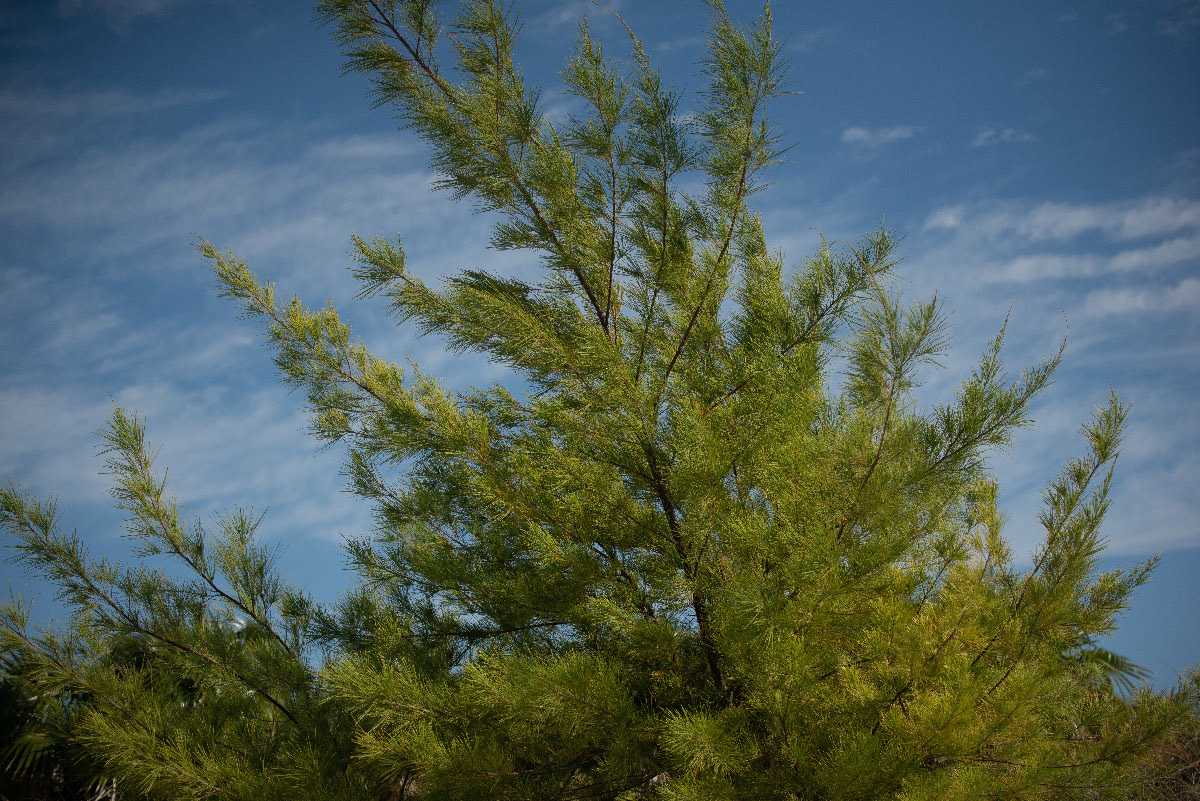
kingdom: Plantae
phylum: Tracheophyta
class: Magnoliopsida
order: Fagales
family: Casuarinaceae
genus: Casuarina
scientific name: Casuarina equisetifolia
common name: Beach sheoak
